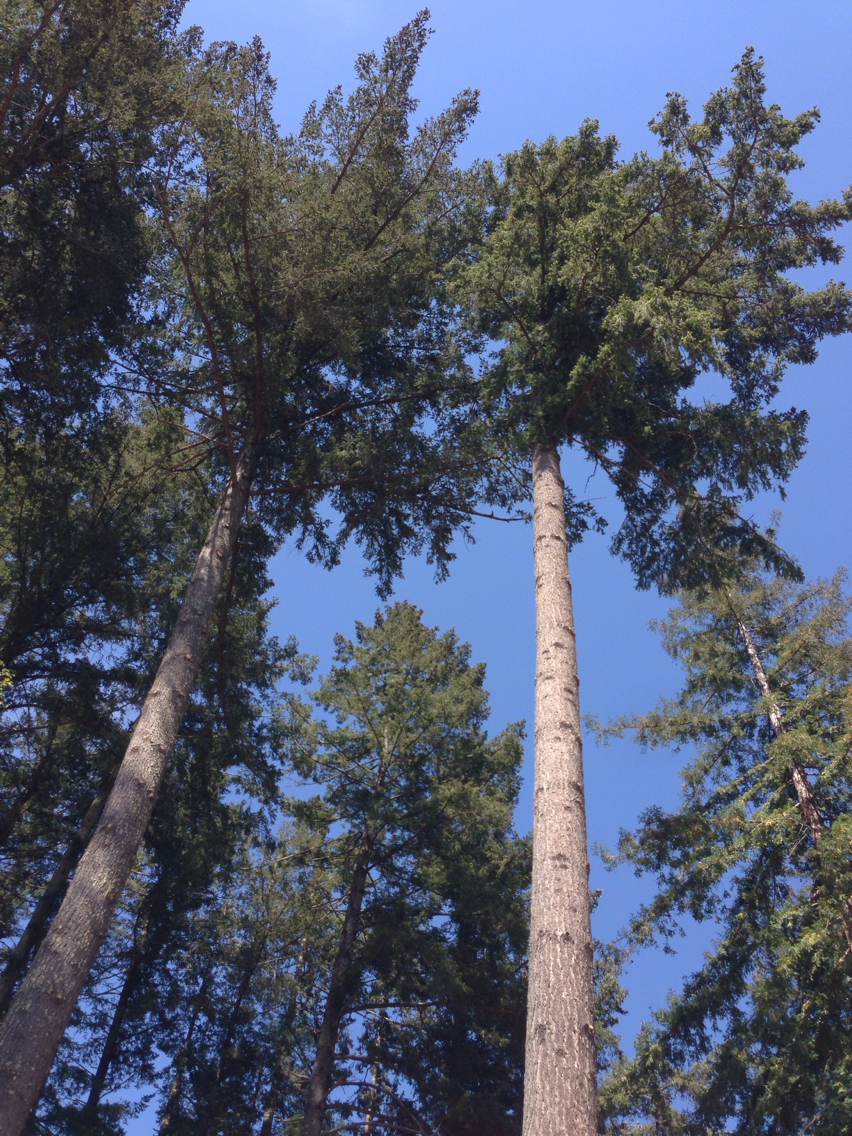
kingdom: Plantae
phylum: Tracheophyta
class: Pinopsida
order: Pinales
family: Pinaceae
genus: Pseudotsuga
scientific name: Pseudotsuga menziesii
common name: Douglas fir
